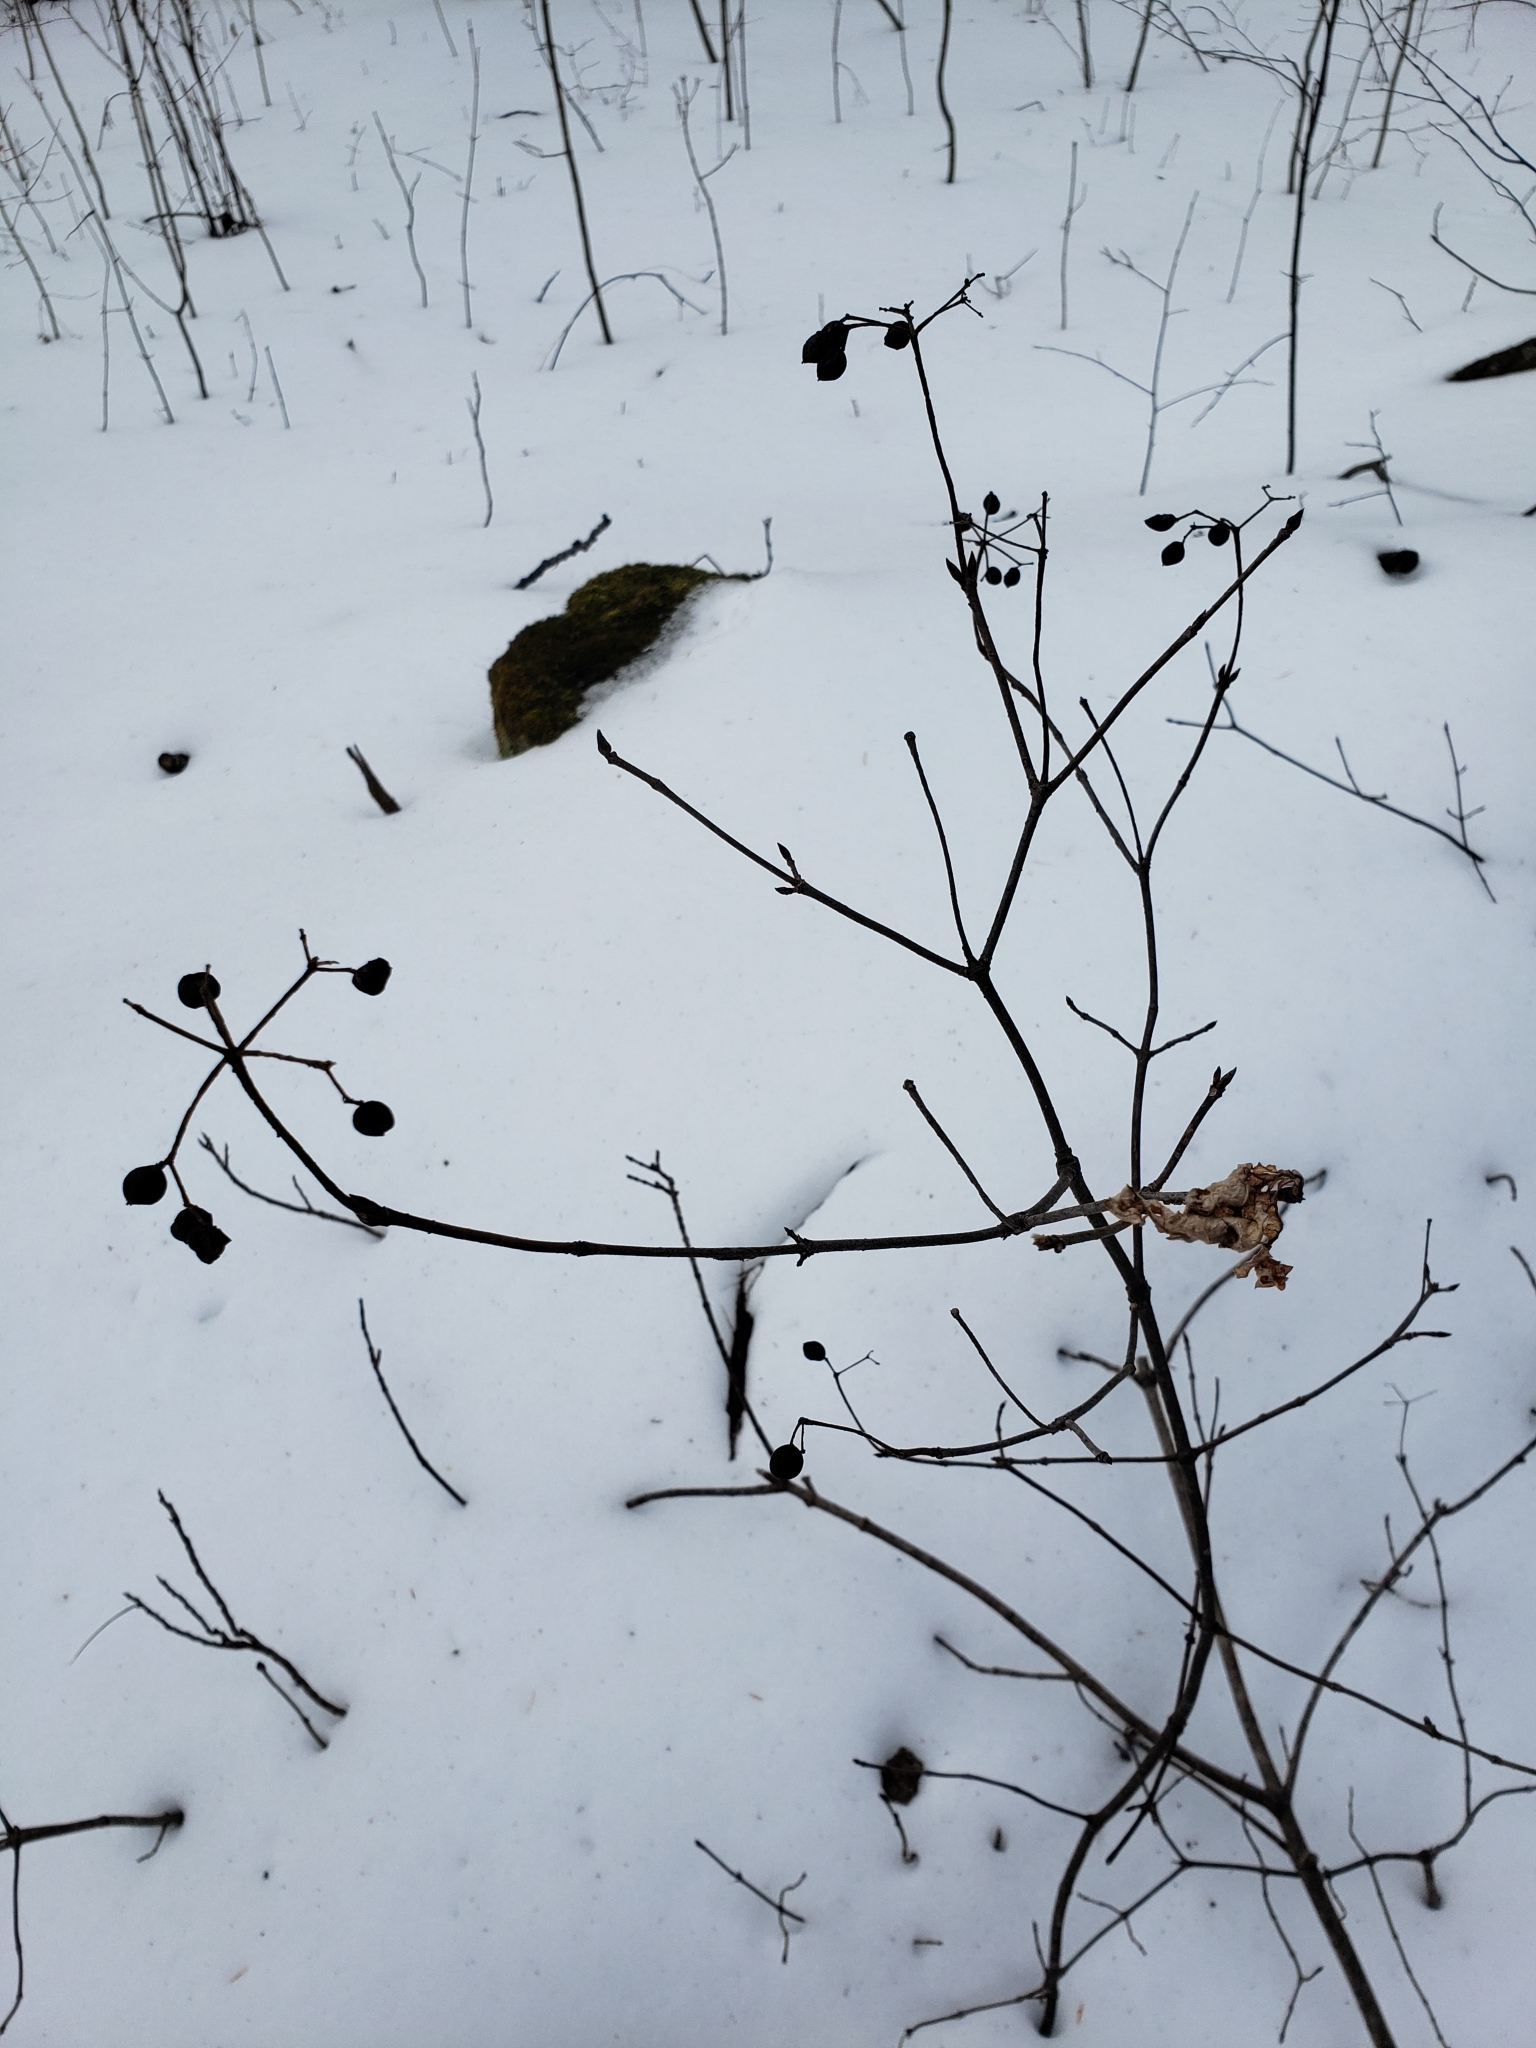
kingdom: Plantae
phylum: Tracheophyta
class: Magnoliopsida
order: Dipsacales
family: Viburnaceae
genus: Viburnum
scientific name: Viburnum acerifolium
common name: Dockmackie
